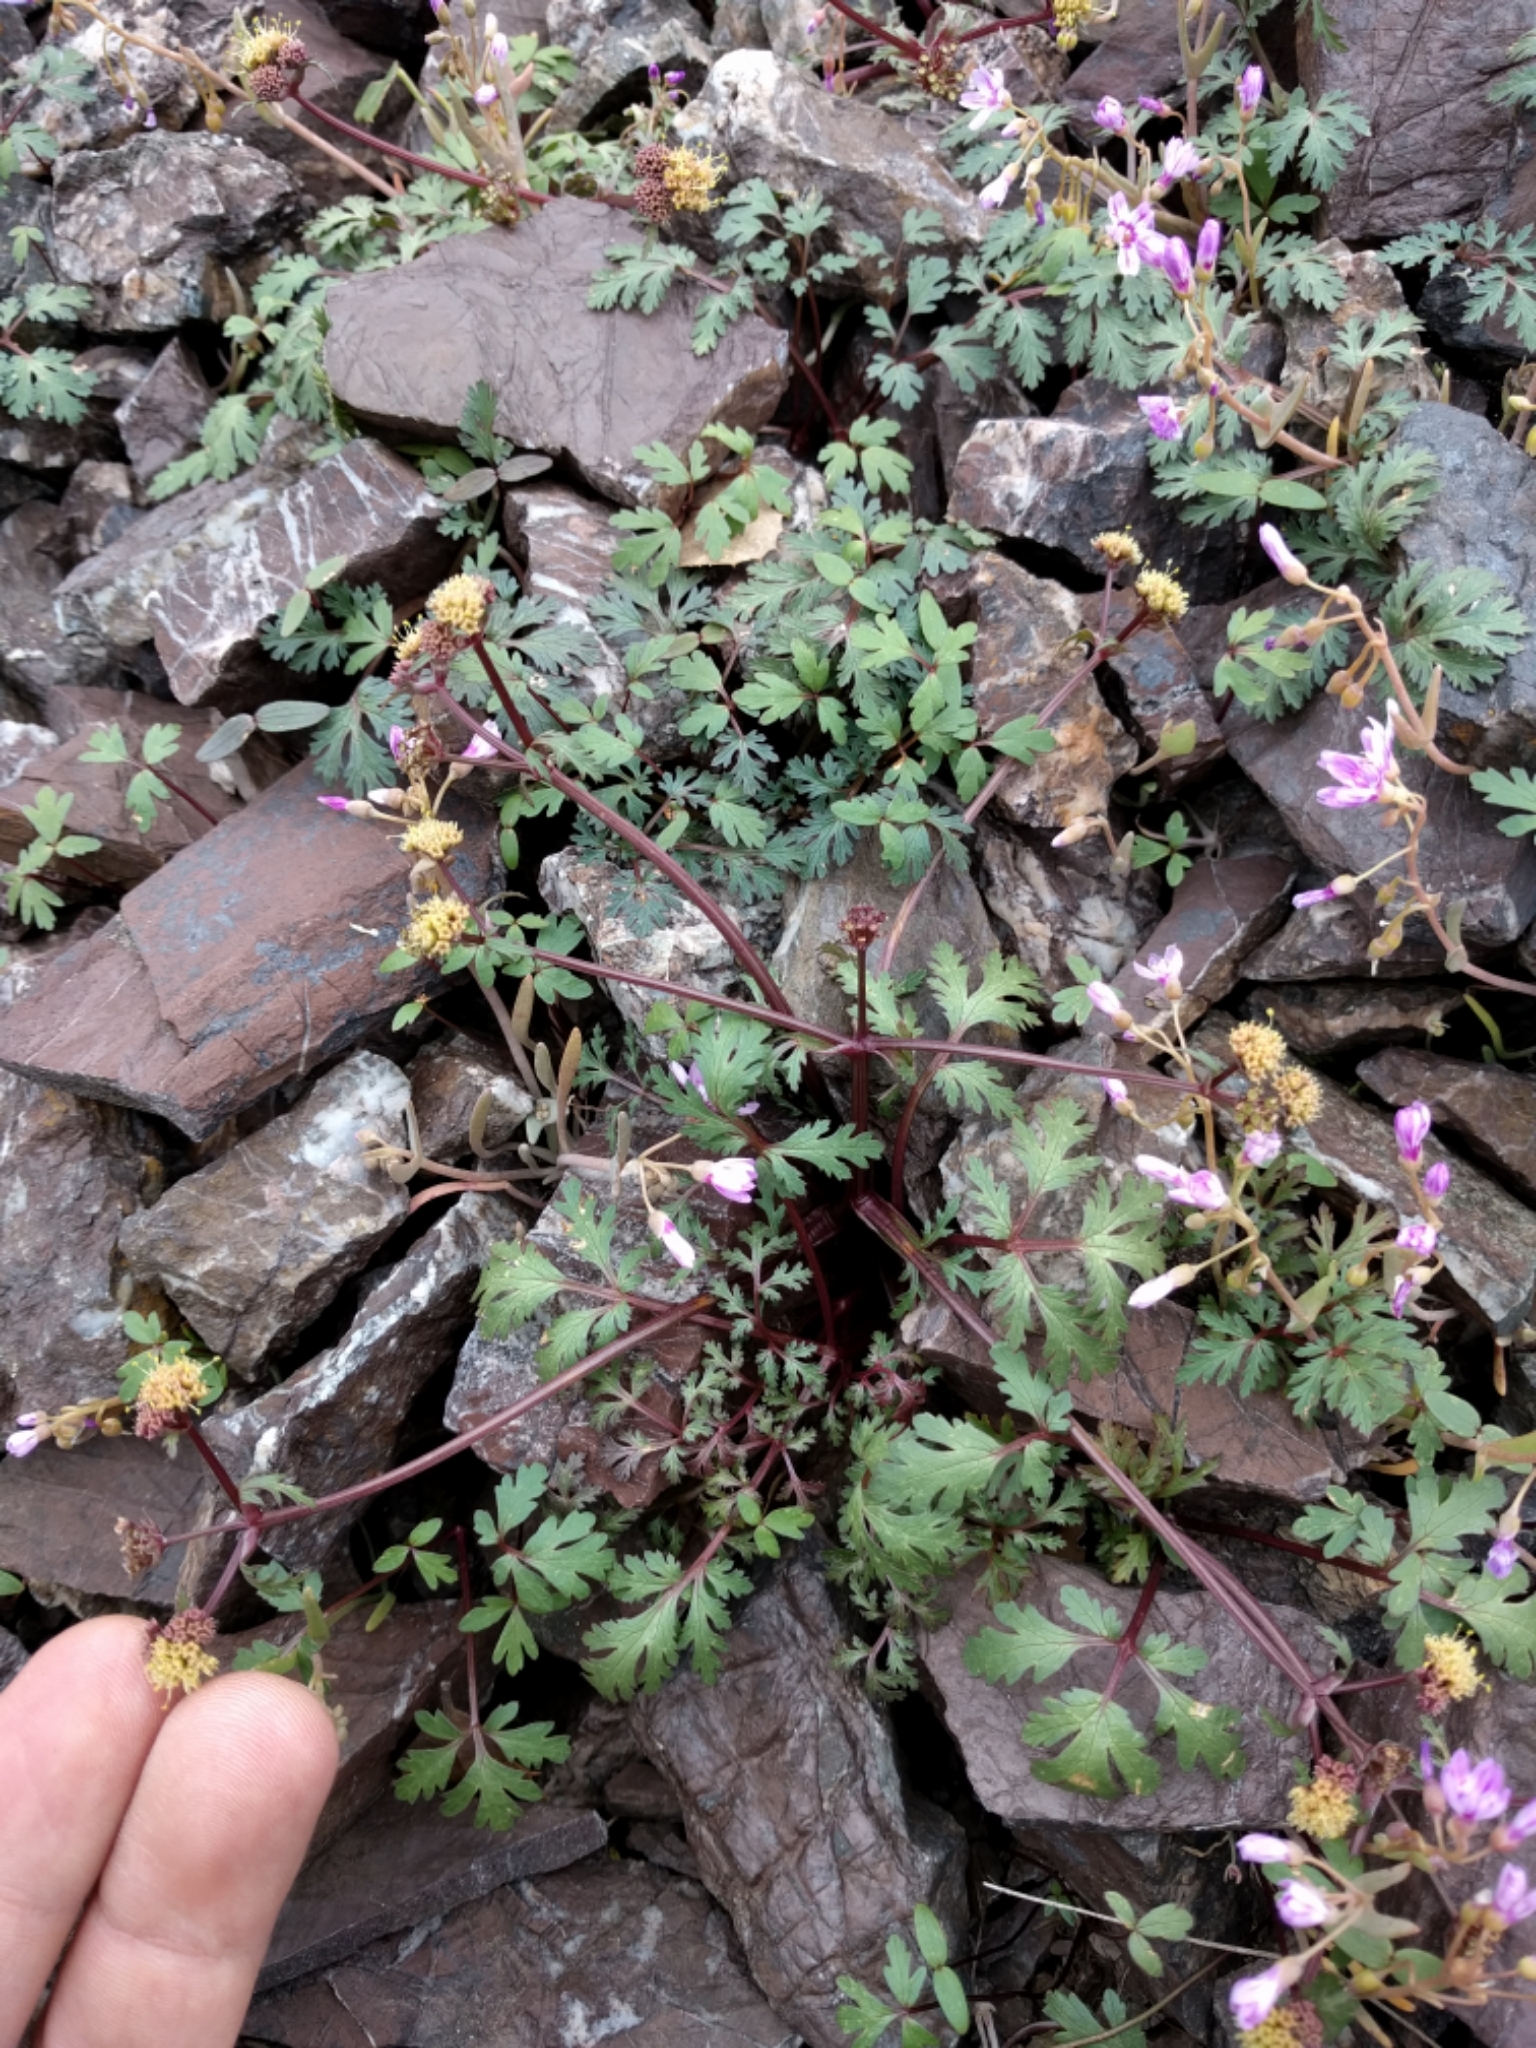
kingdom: Plantae
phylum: Tracheophyta
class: Magnoliopsida
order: Apiales
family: Apiaceae
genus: Sanicula
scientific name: Sanicula saxatilis
